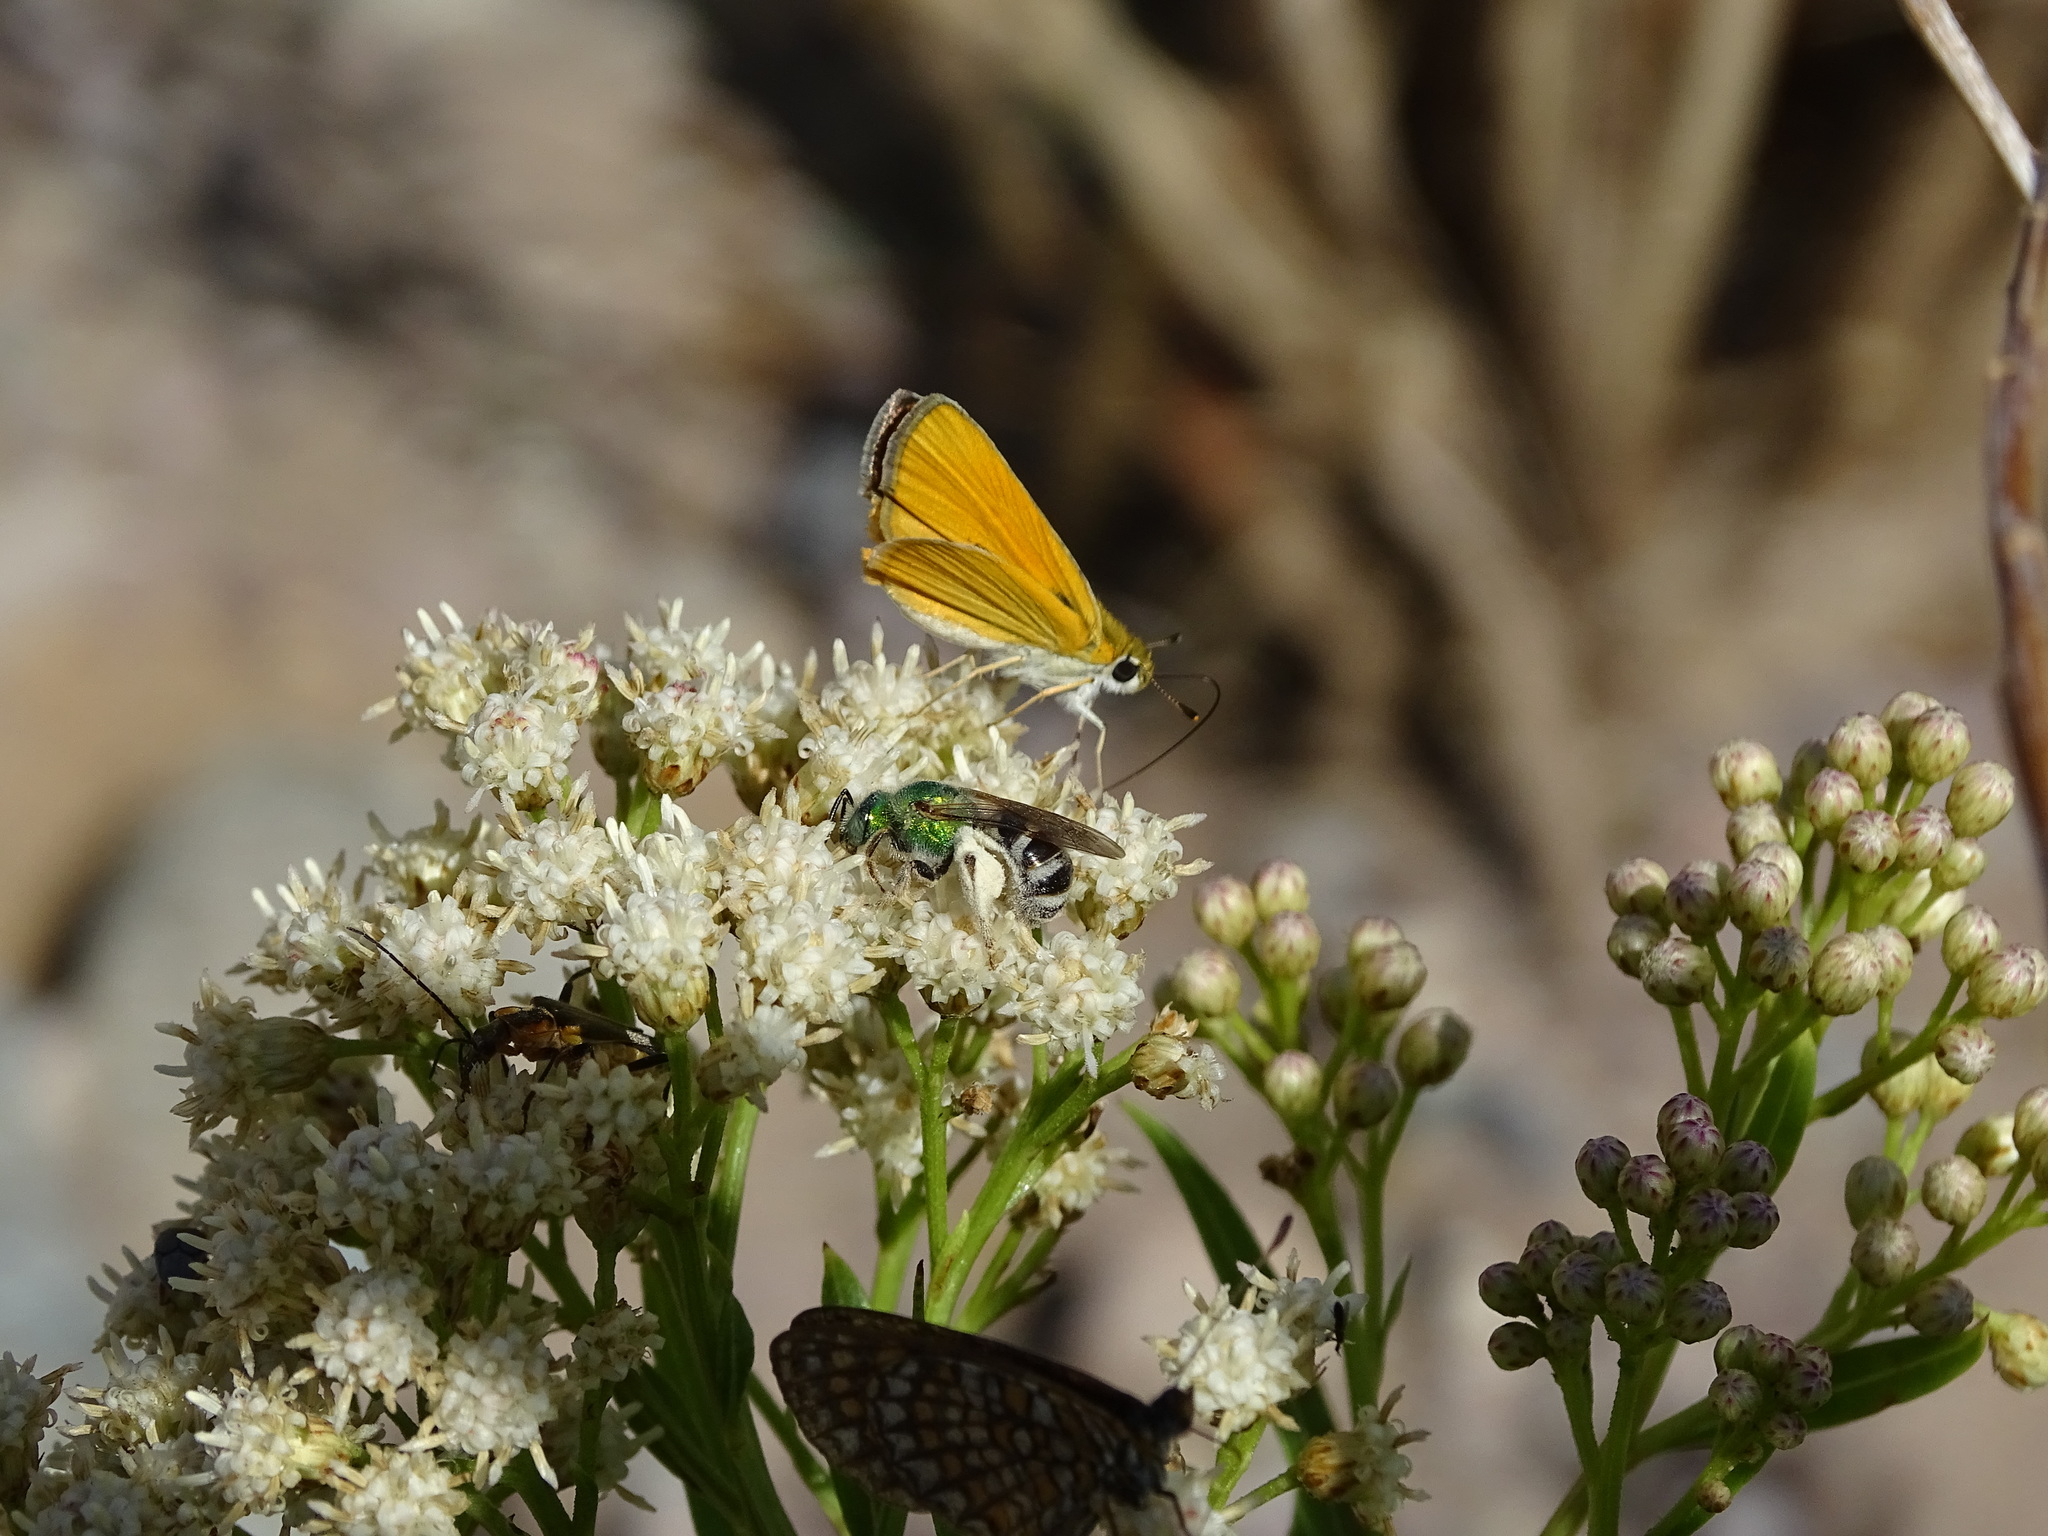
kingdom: Animalia
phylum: Arthropoda
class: Insecta
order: Lepidoptera
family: Hesperiidae
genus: Copaeodes
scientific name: Copaeodes aurantiaca
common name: Orange skipperling
